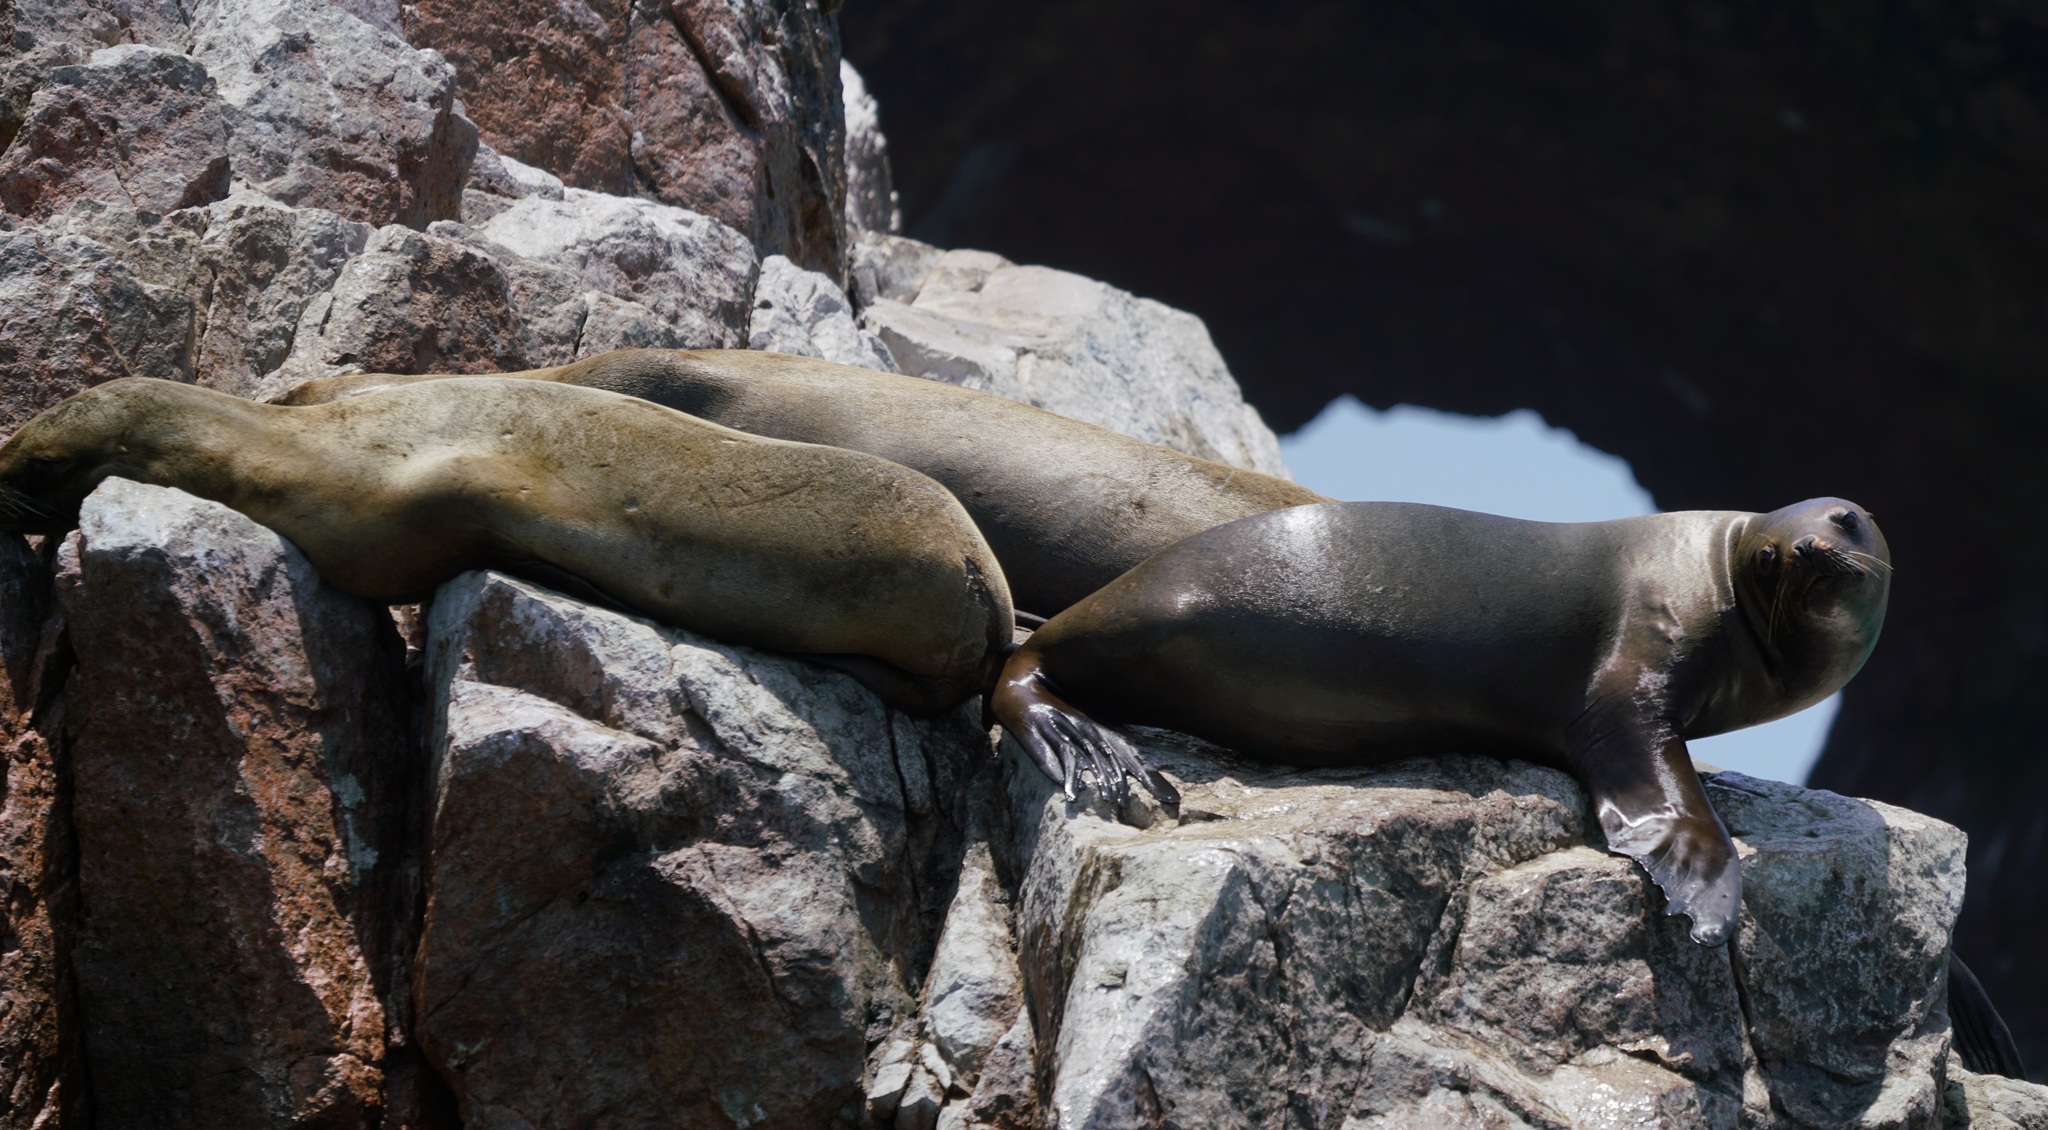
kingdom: Animalia
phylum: Chordata
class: Mammalia
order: Carnivora
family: Otariidae
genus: Otaria
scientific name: Otaria byronia
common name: South american sea lion
